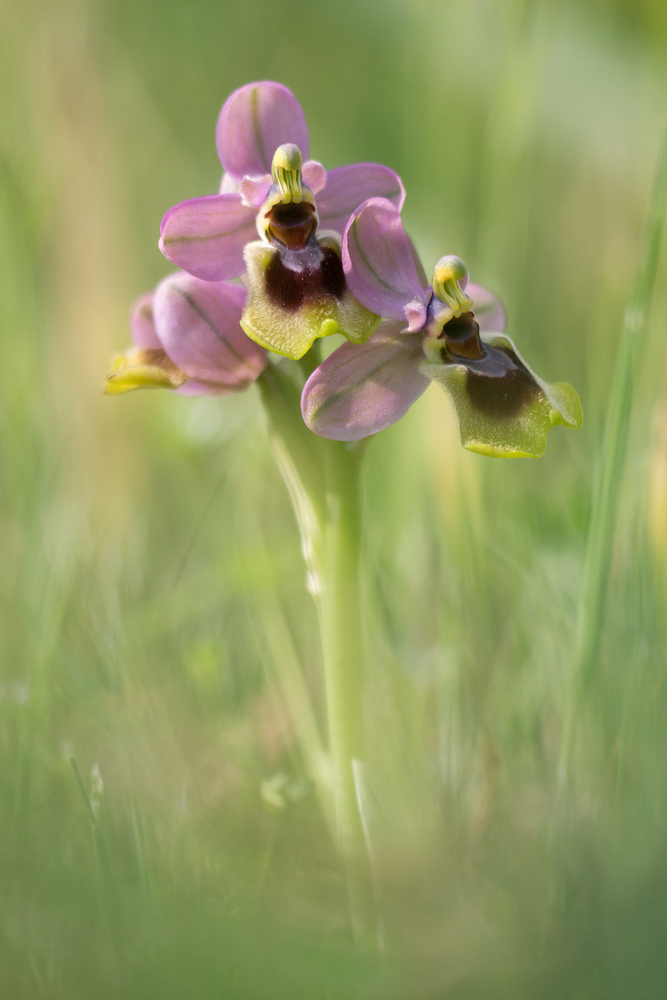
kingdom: Plantae
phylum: Tracheophyta
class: Liliopsida
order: Asparagales
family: Orchidaceae
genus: Ophrys
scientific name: Ophrys tenthredinifera
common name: Sawfly orchid
